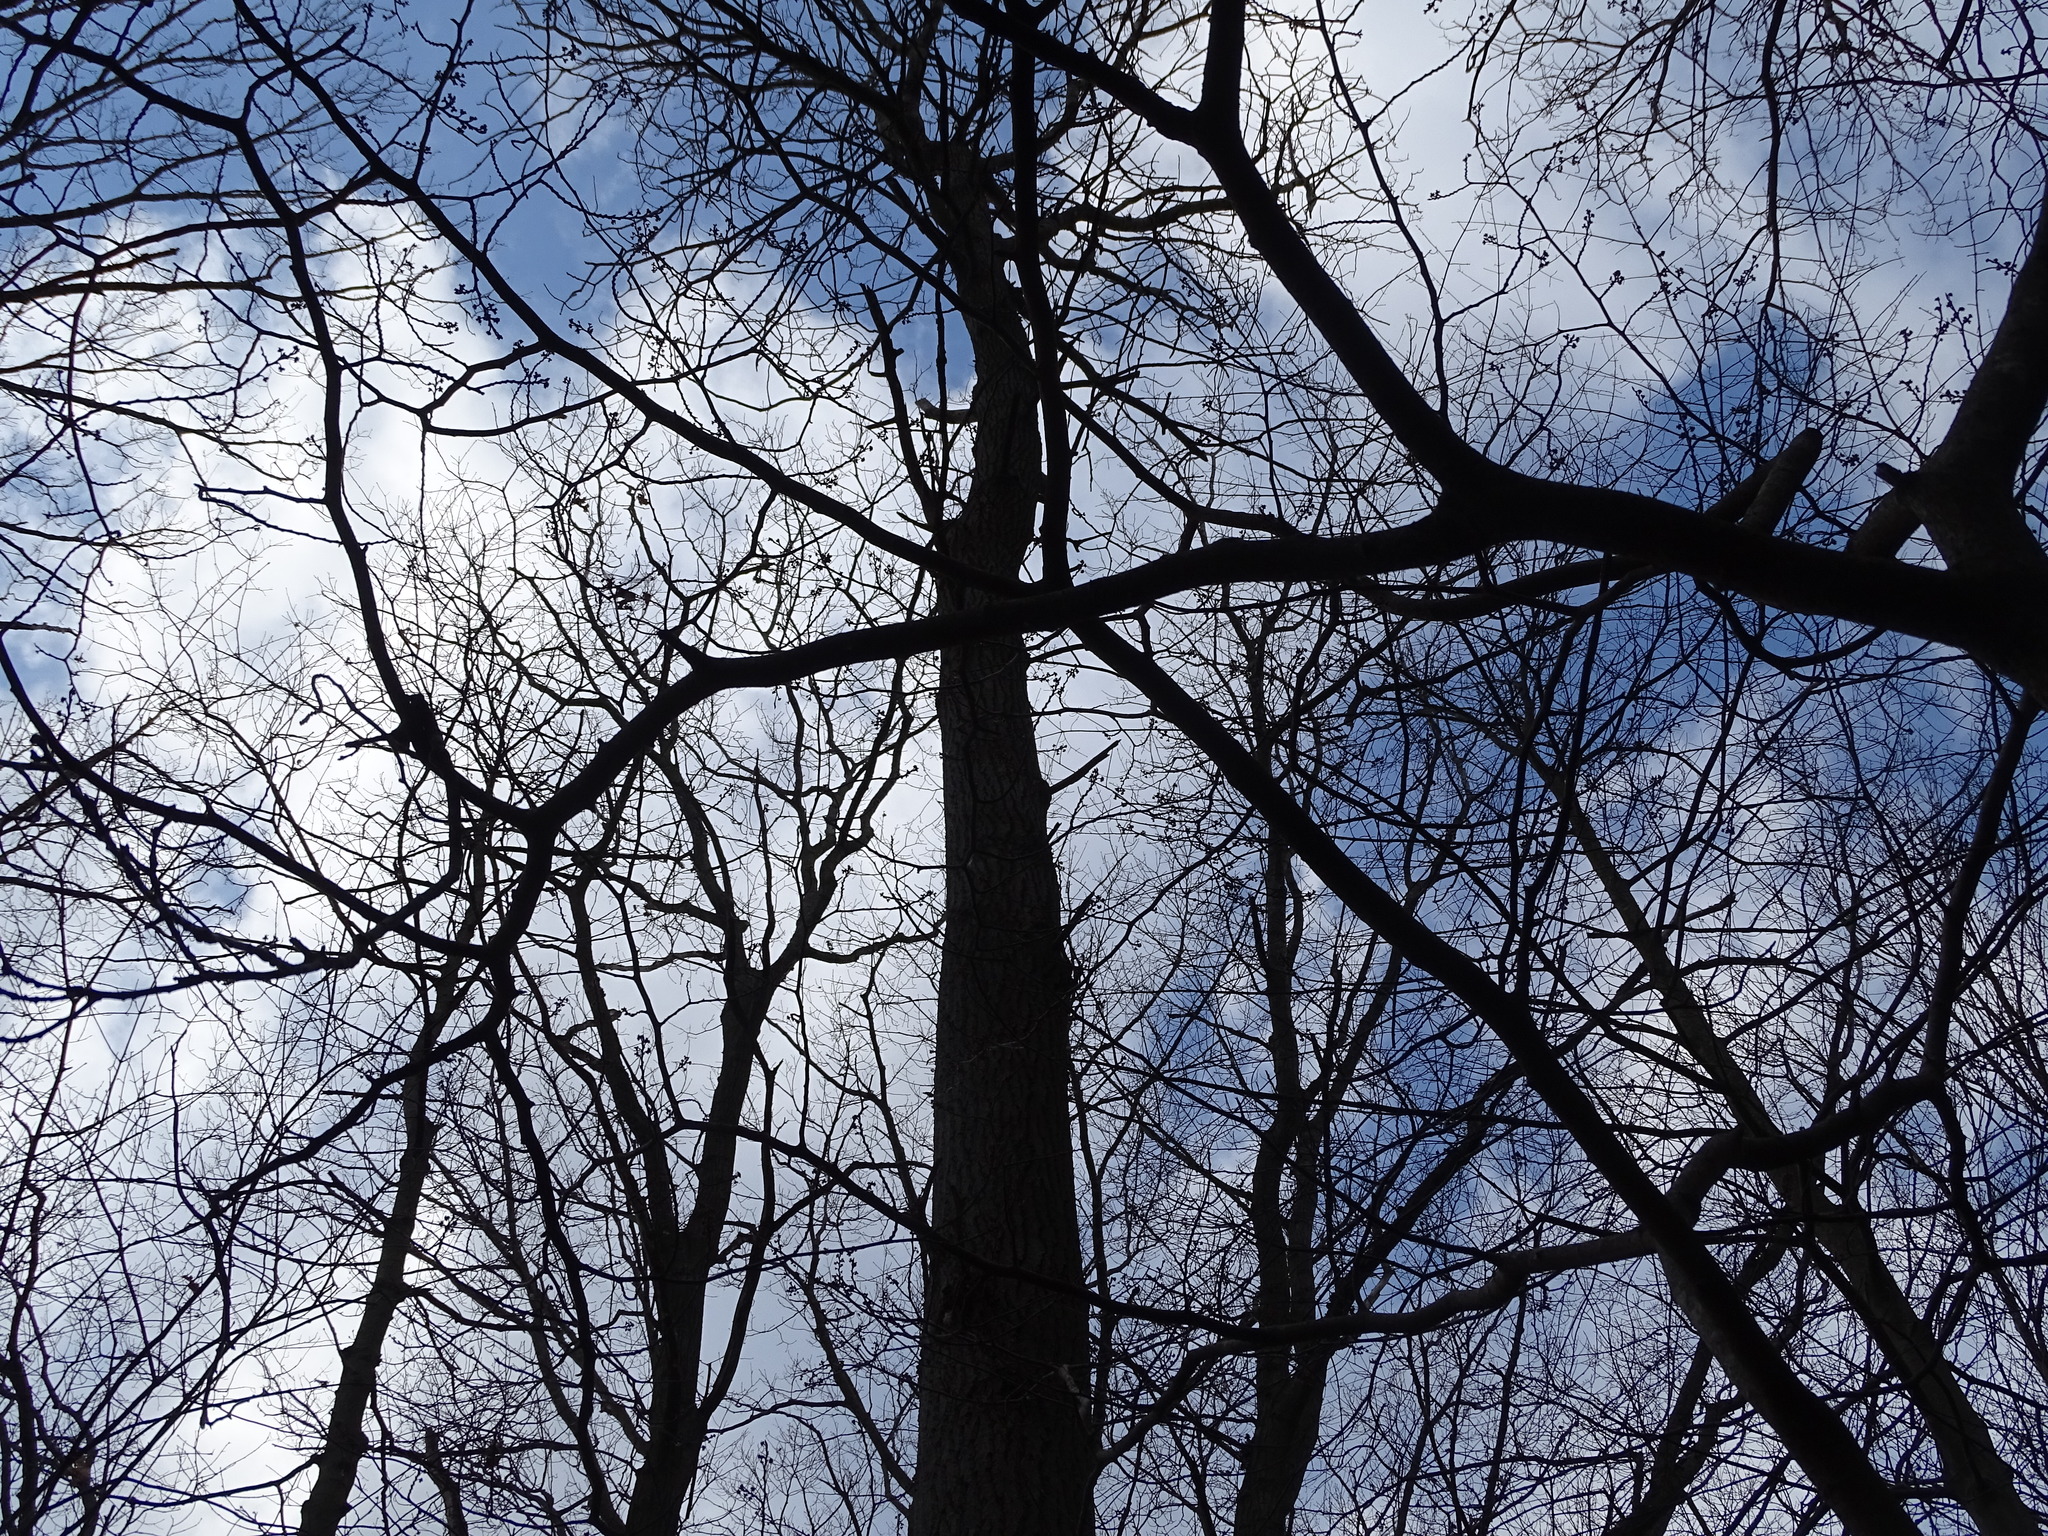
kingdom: Plantae
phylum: Tracheophyta
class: Magnoliopsida
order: Malpighiales
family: Salicaceae
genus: Populus
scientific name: Populus grandidentata
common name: Bigtooth aspen
